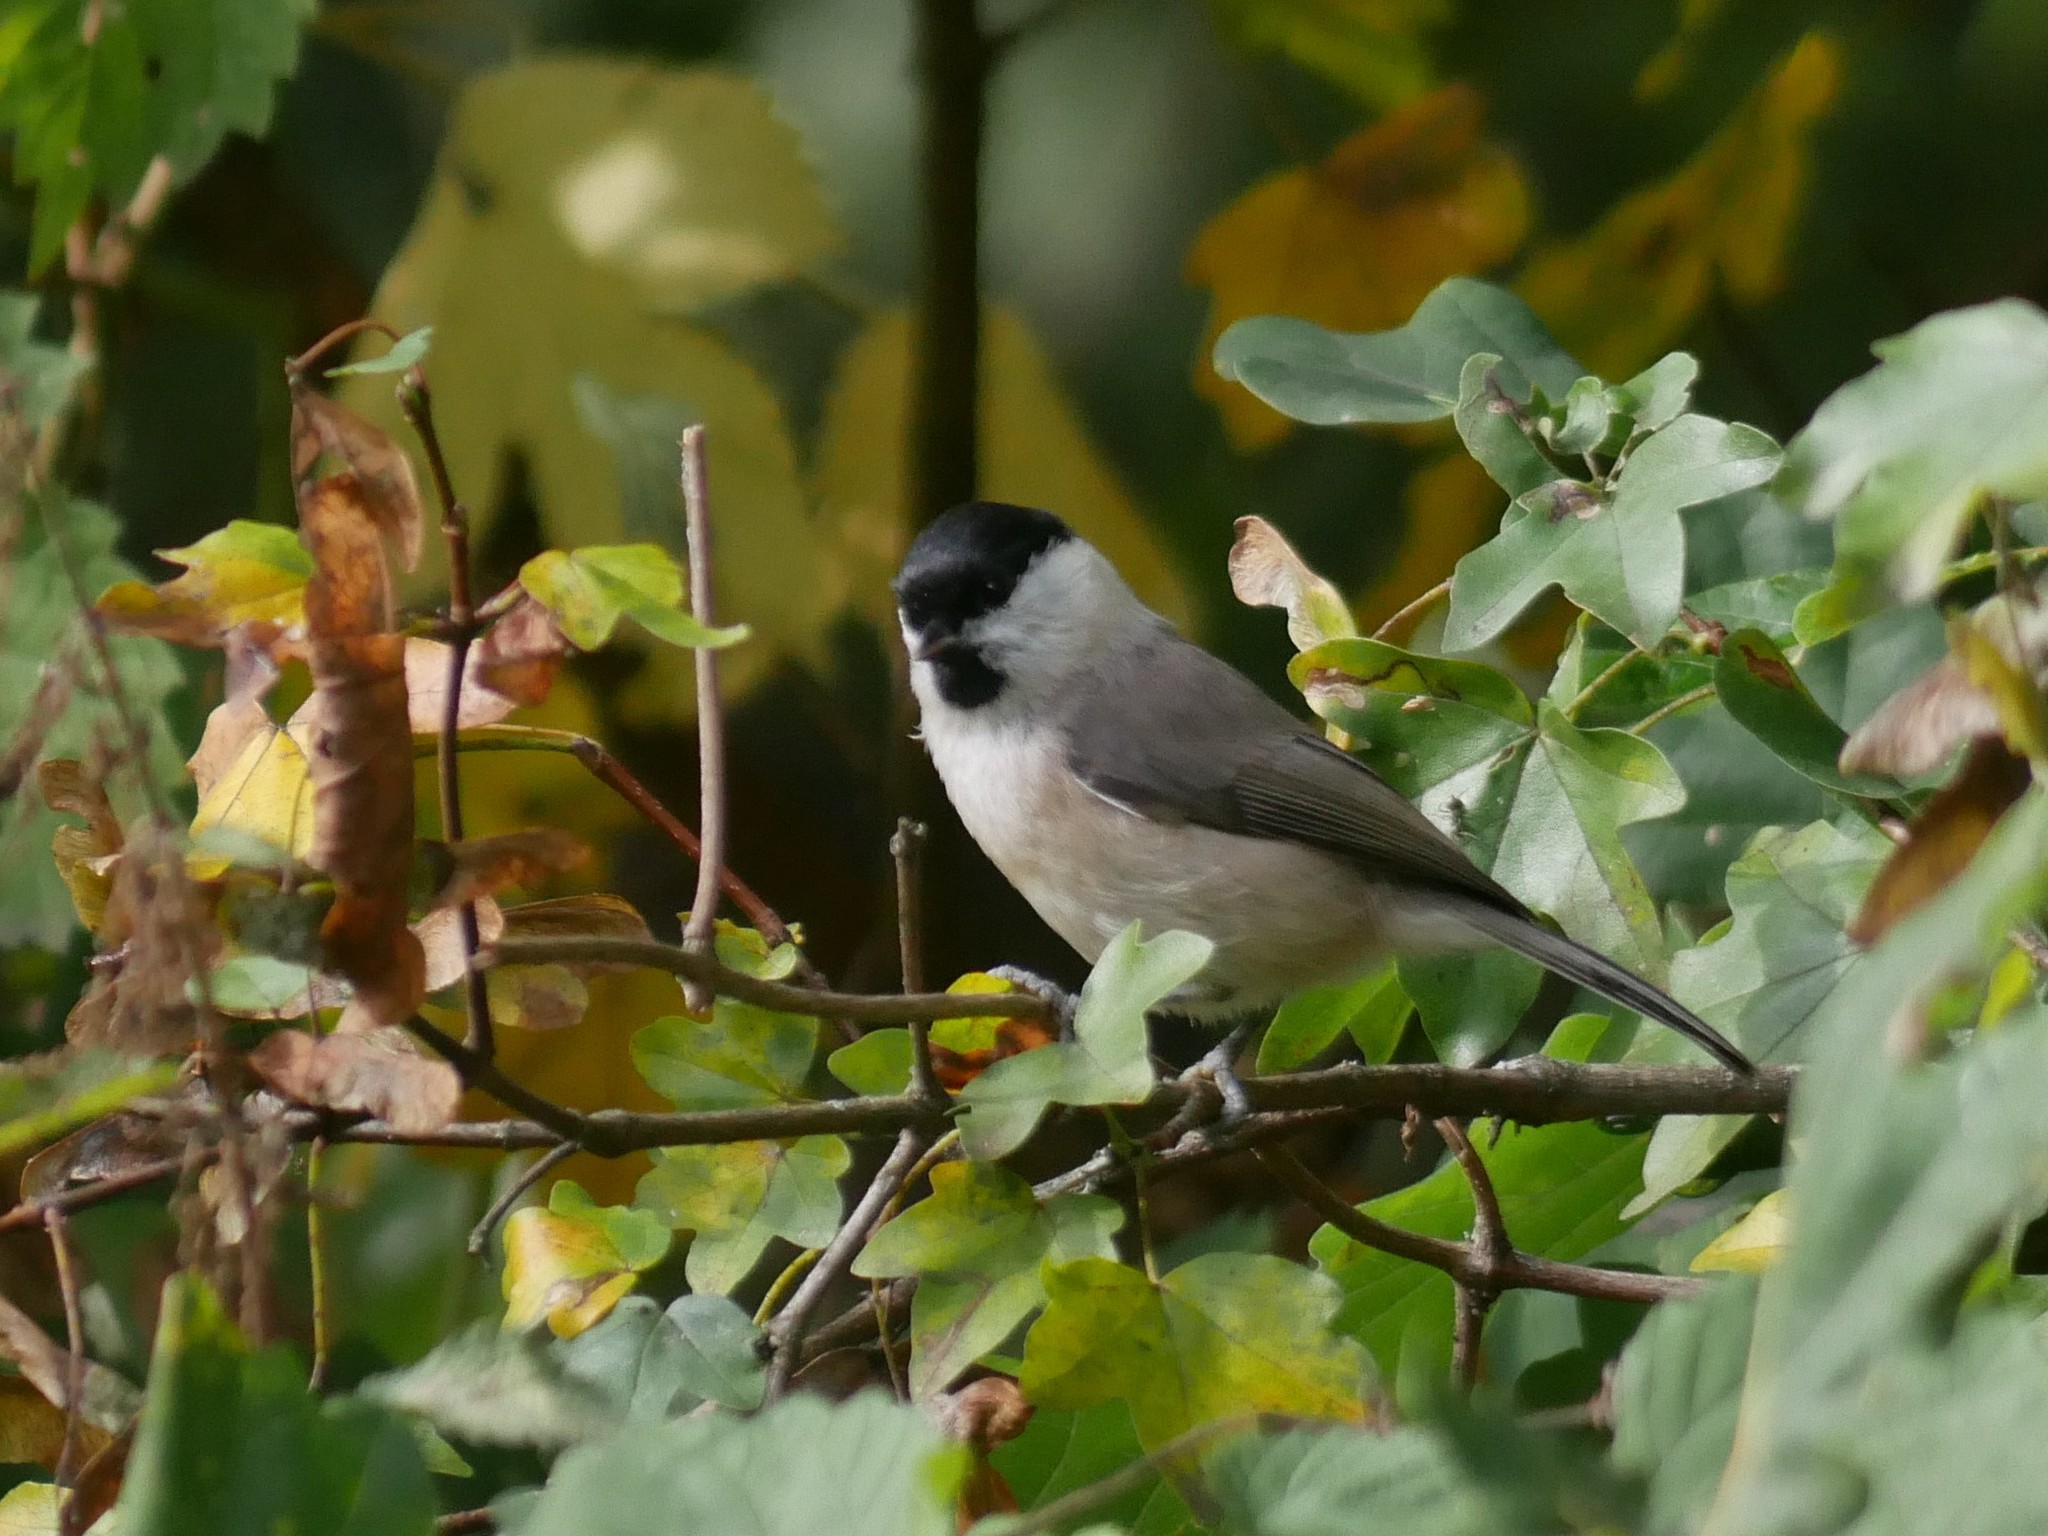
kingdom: Animalia
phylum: Chordata
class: Aves
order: Passeriformes
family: Paridae
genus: Poecile
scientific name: Poecile palustris
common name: Marsh tit
